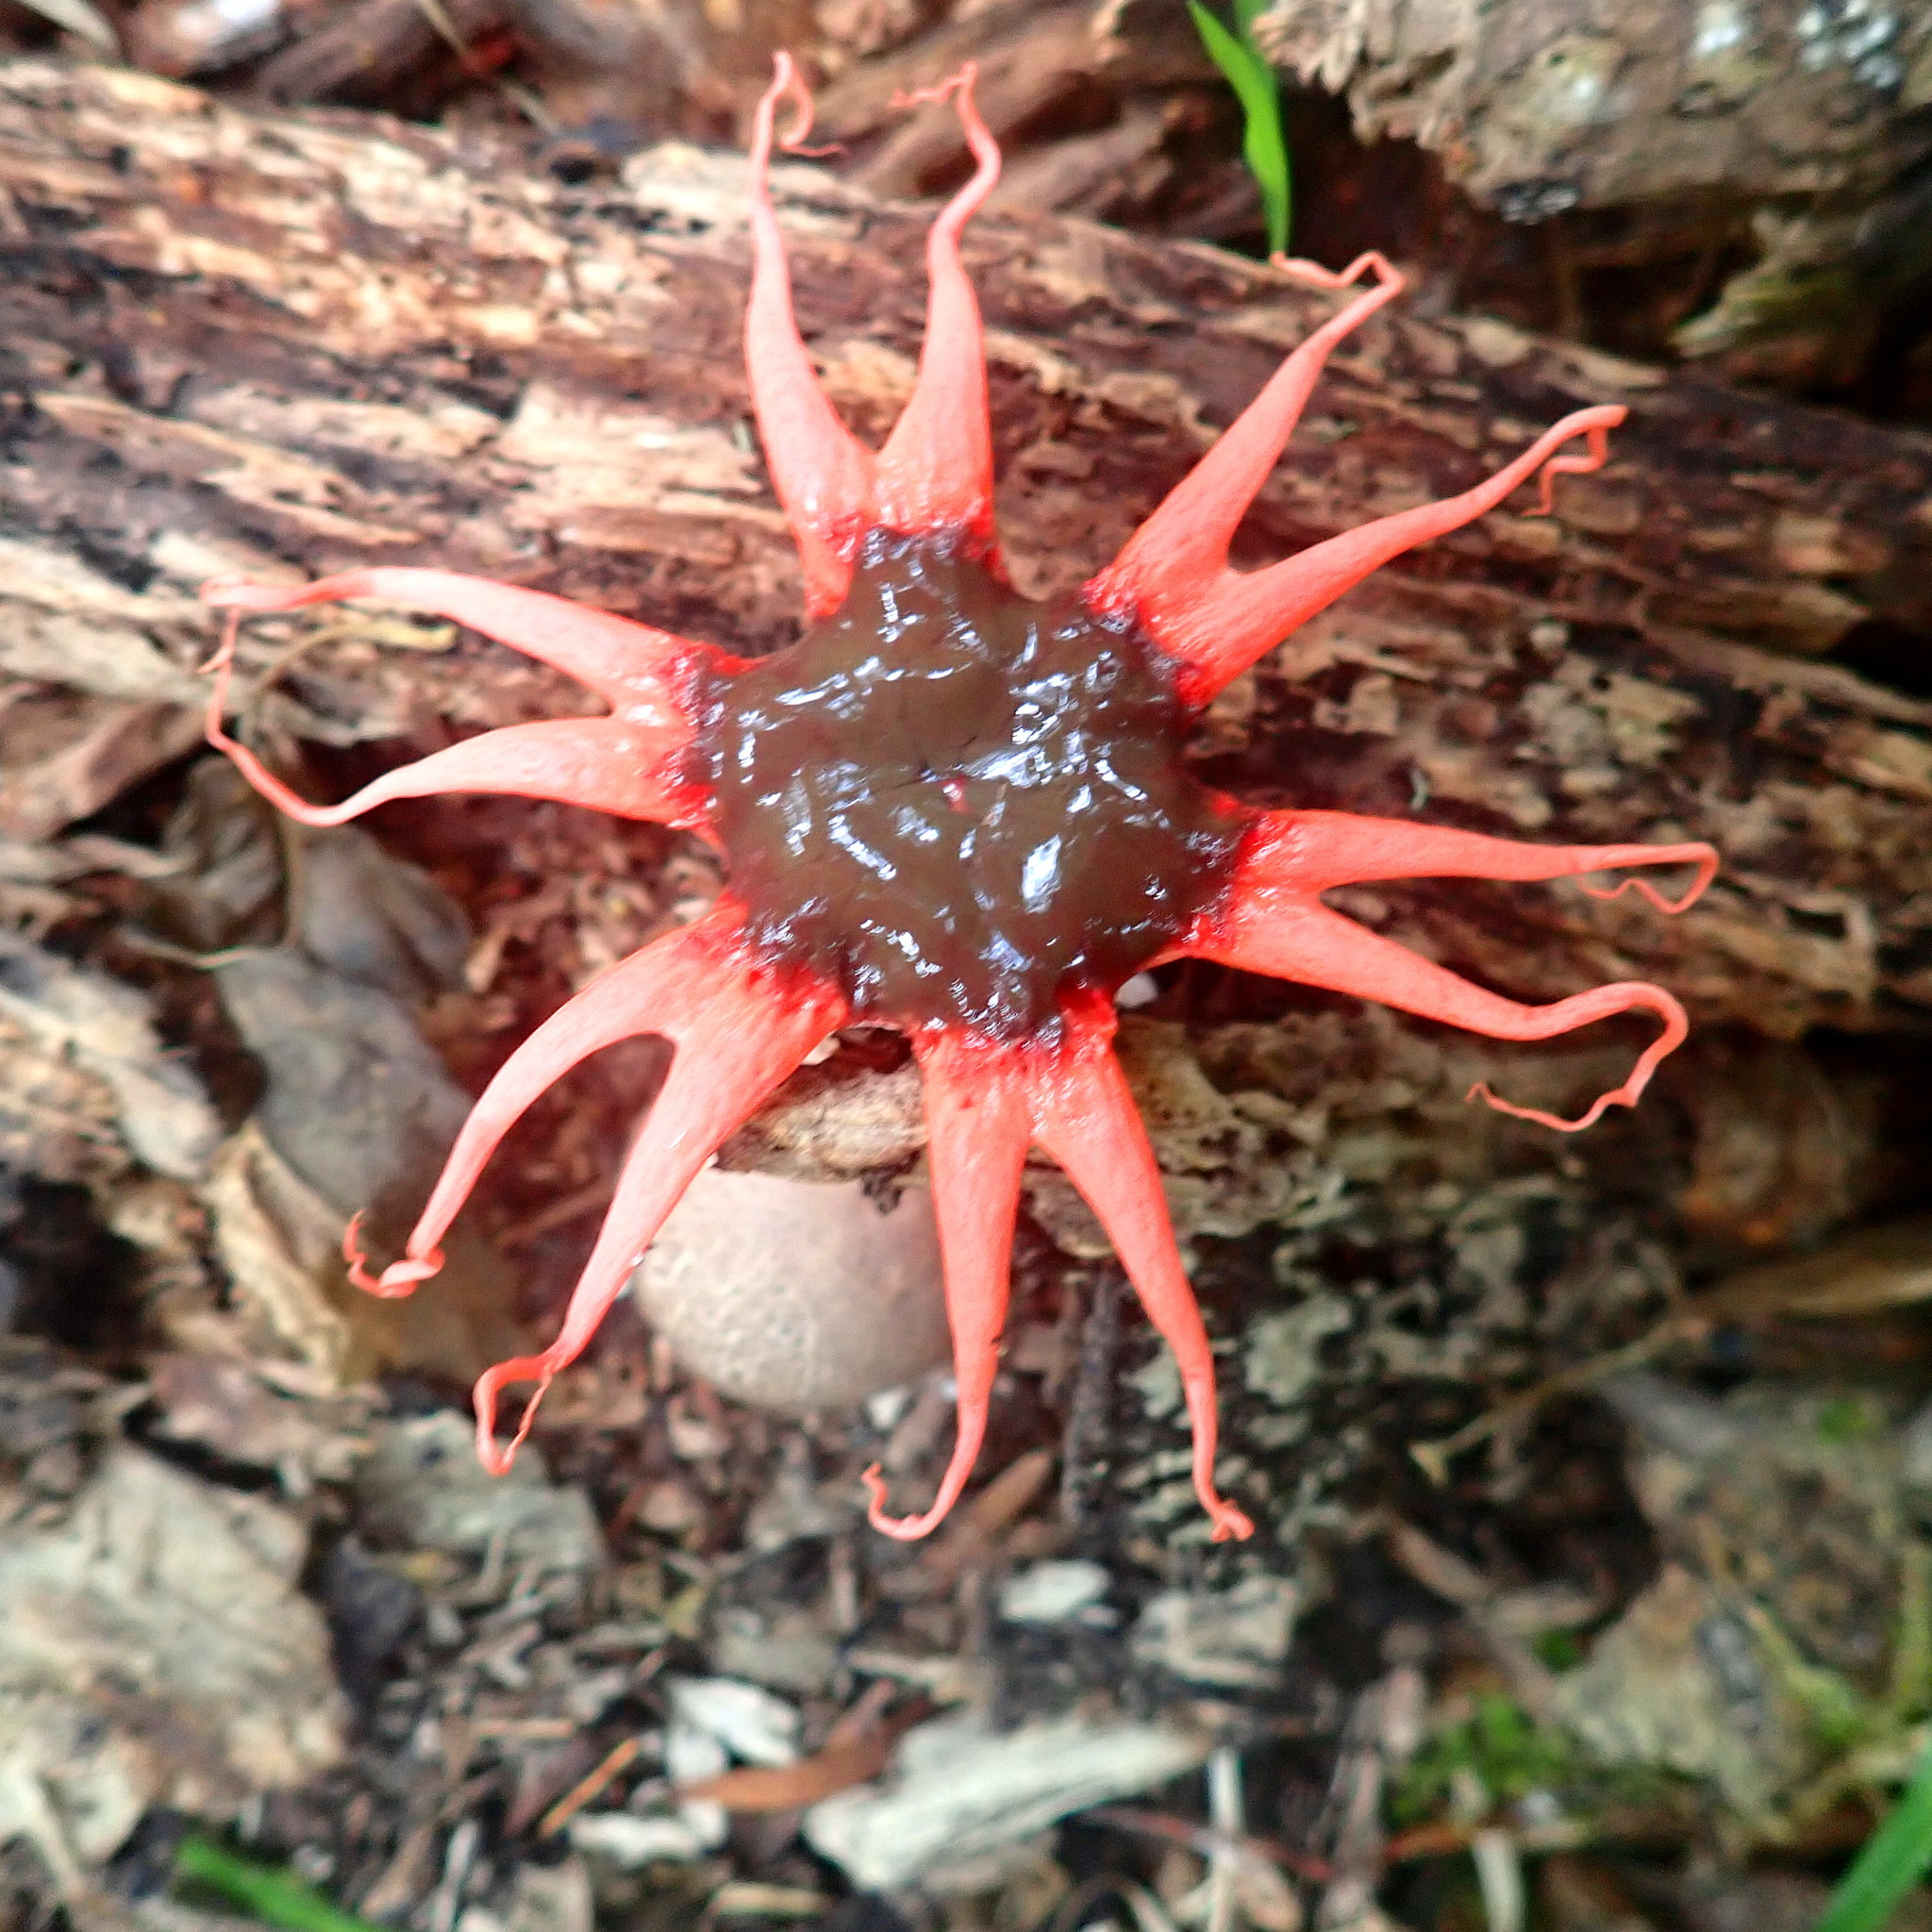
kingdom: Fungi
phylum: Basidiomycota
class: Agaricomycetes
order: Phallales
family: Phallaceae
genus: Aseroe
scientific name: Aseroe rubra
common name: Starfish fungus
